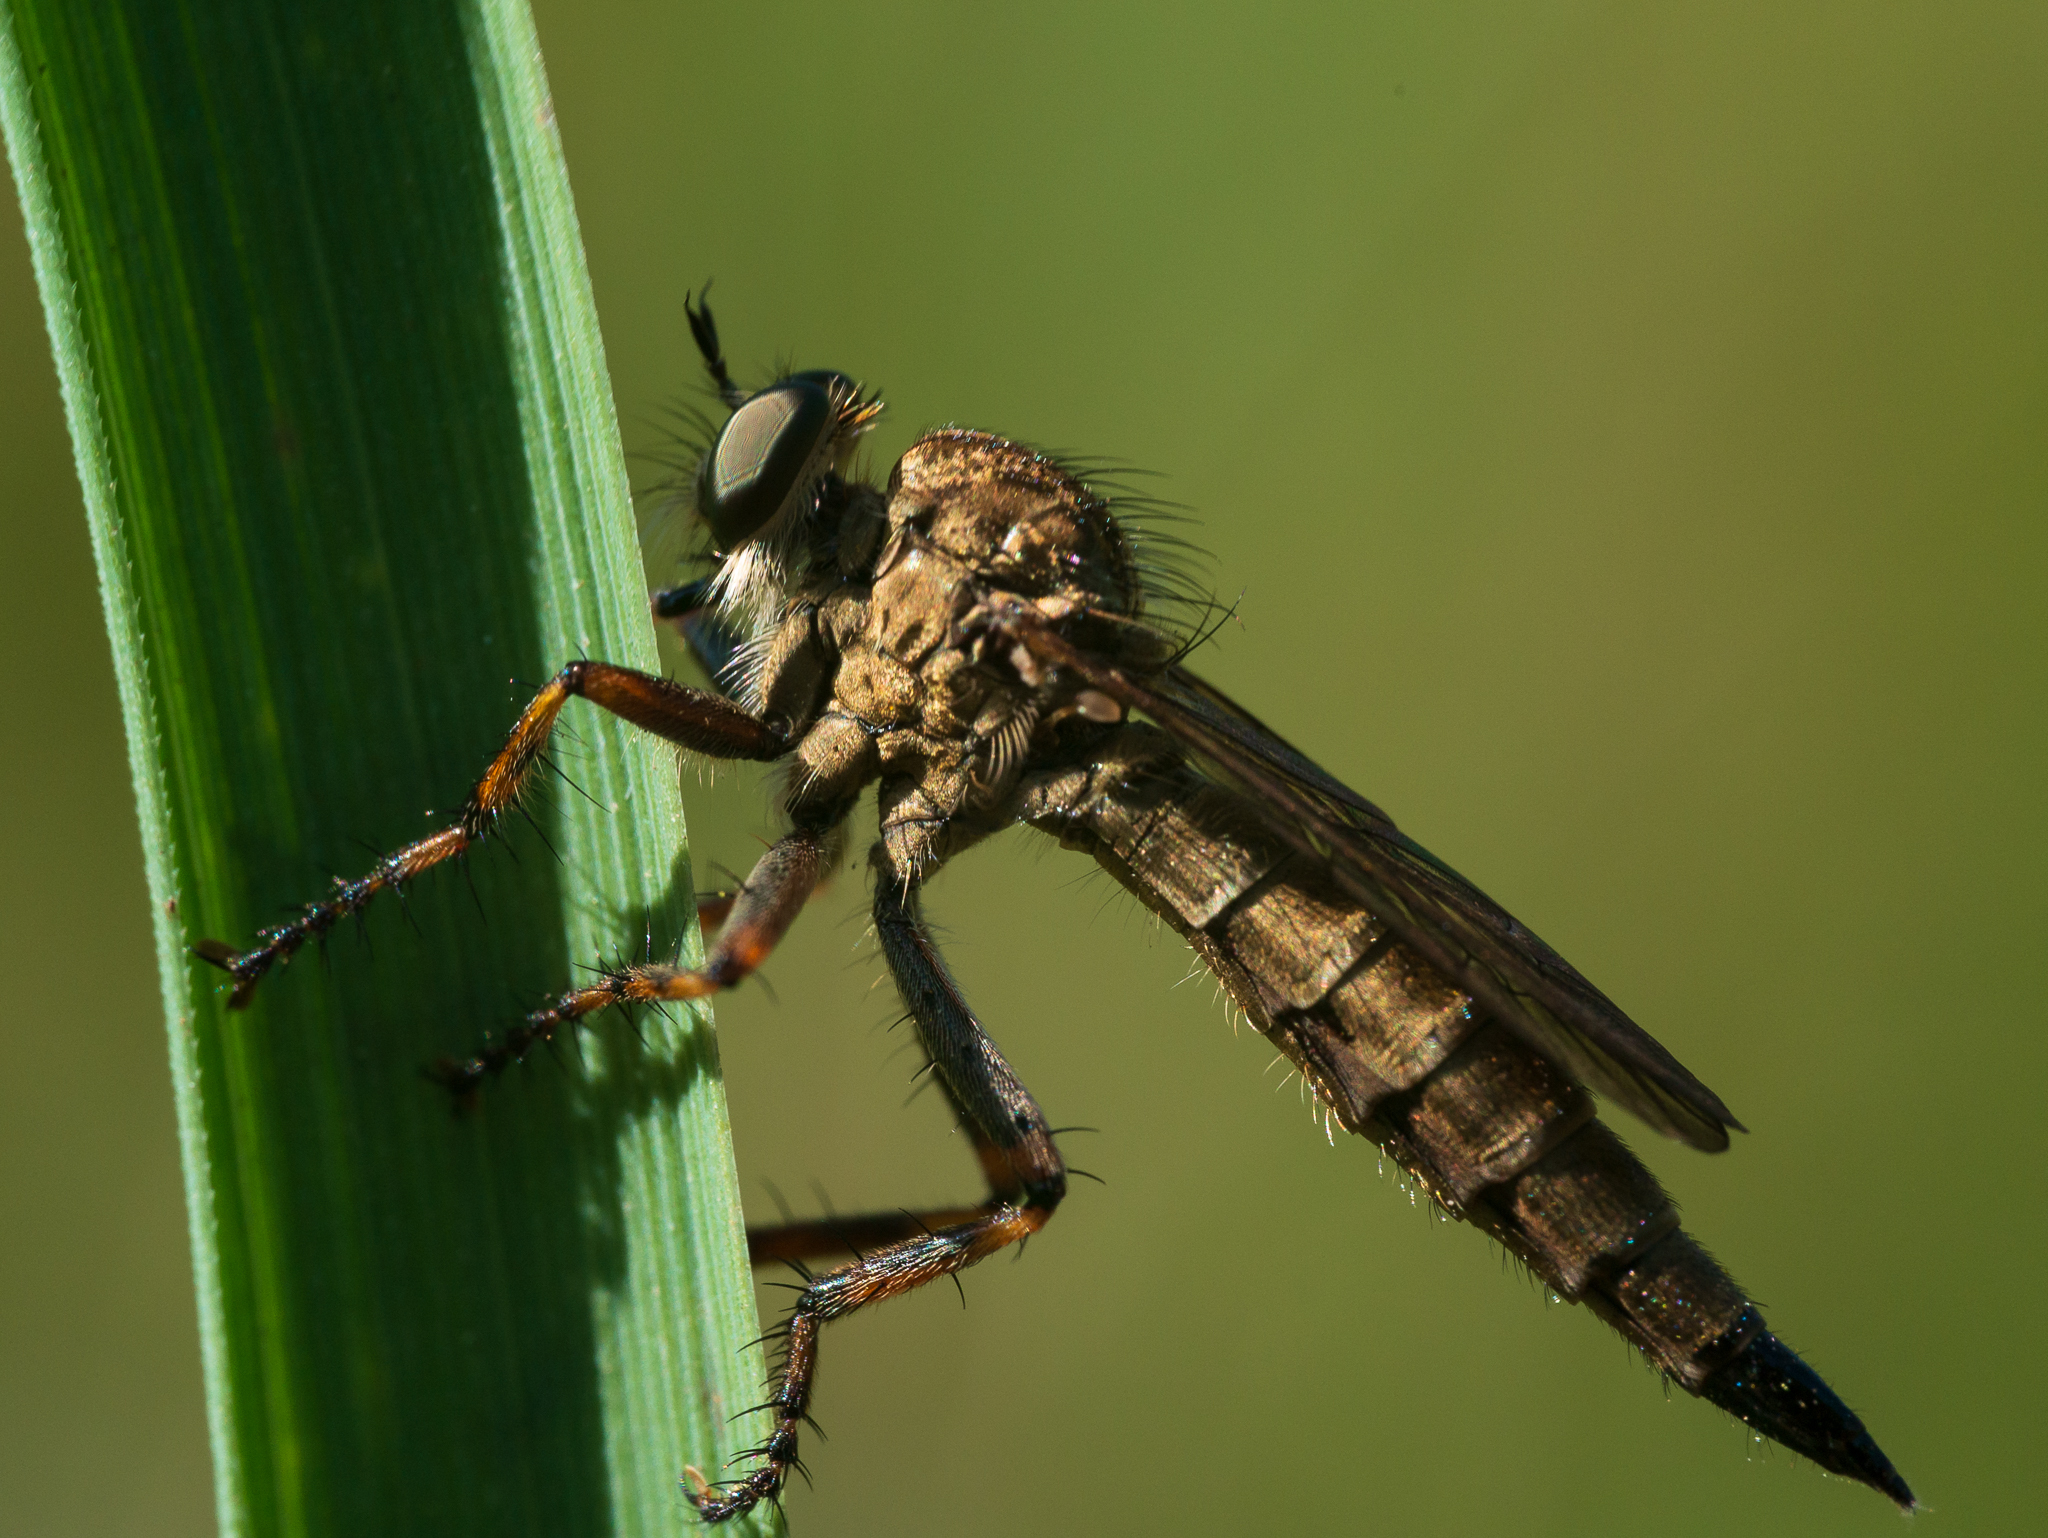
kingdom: Animalia
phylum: Arthropoda
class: Insecta
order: Diptera
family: Asilidae
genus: Epitriptus
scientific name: Epitriptus cingulatus
